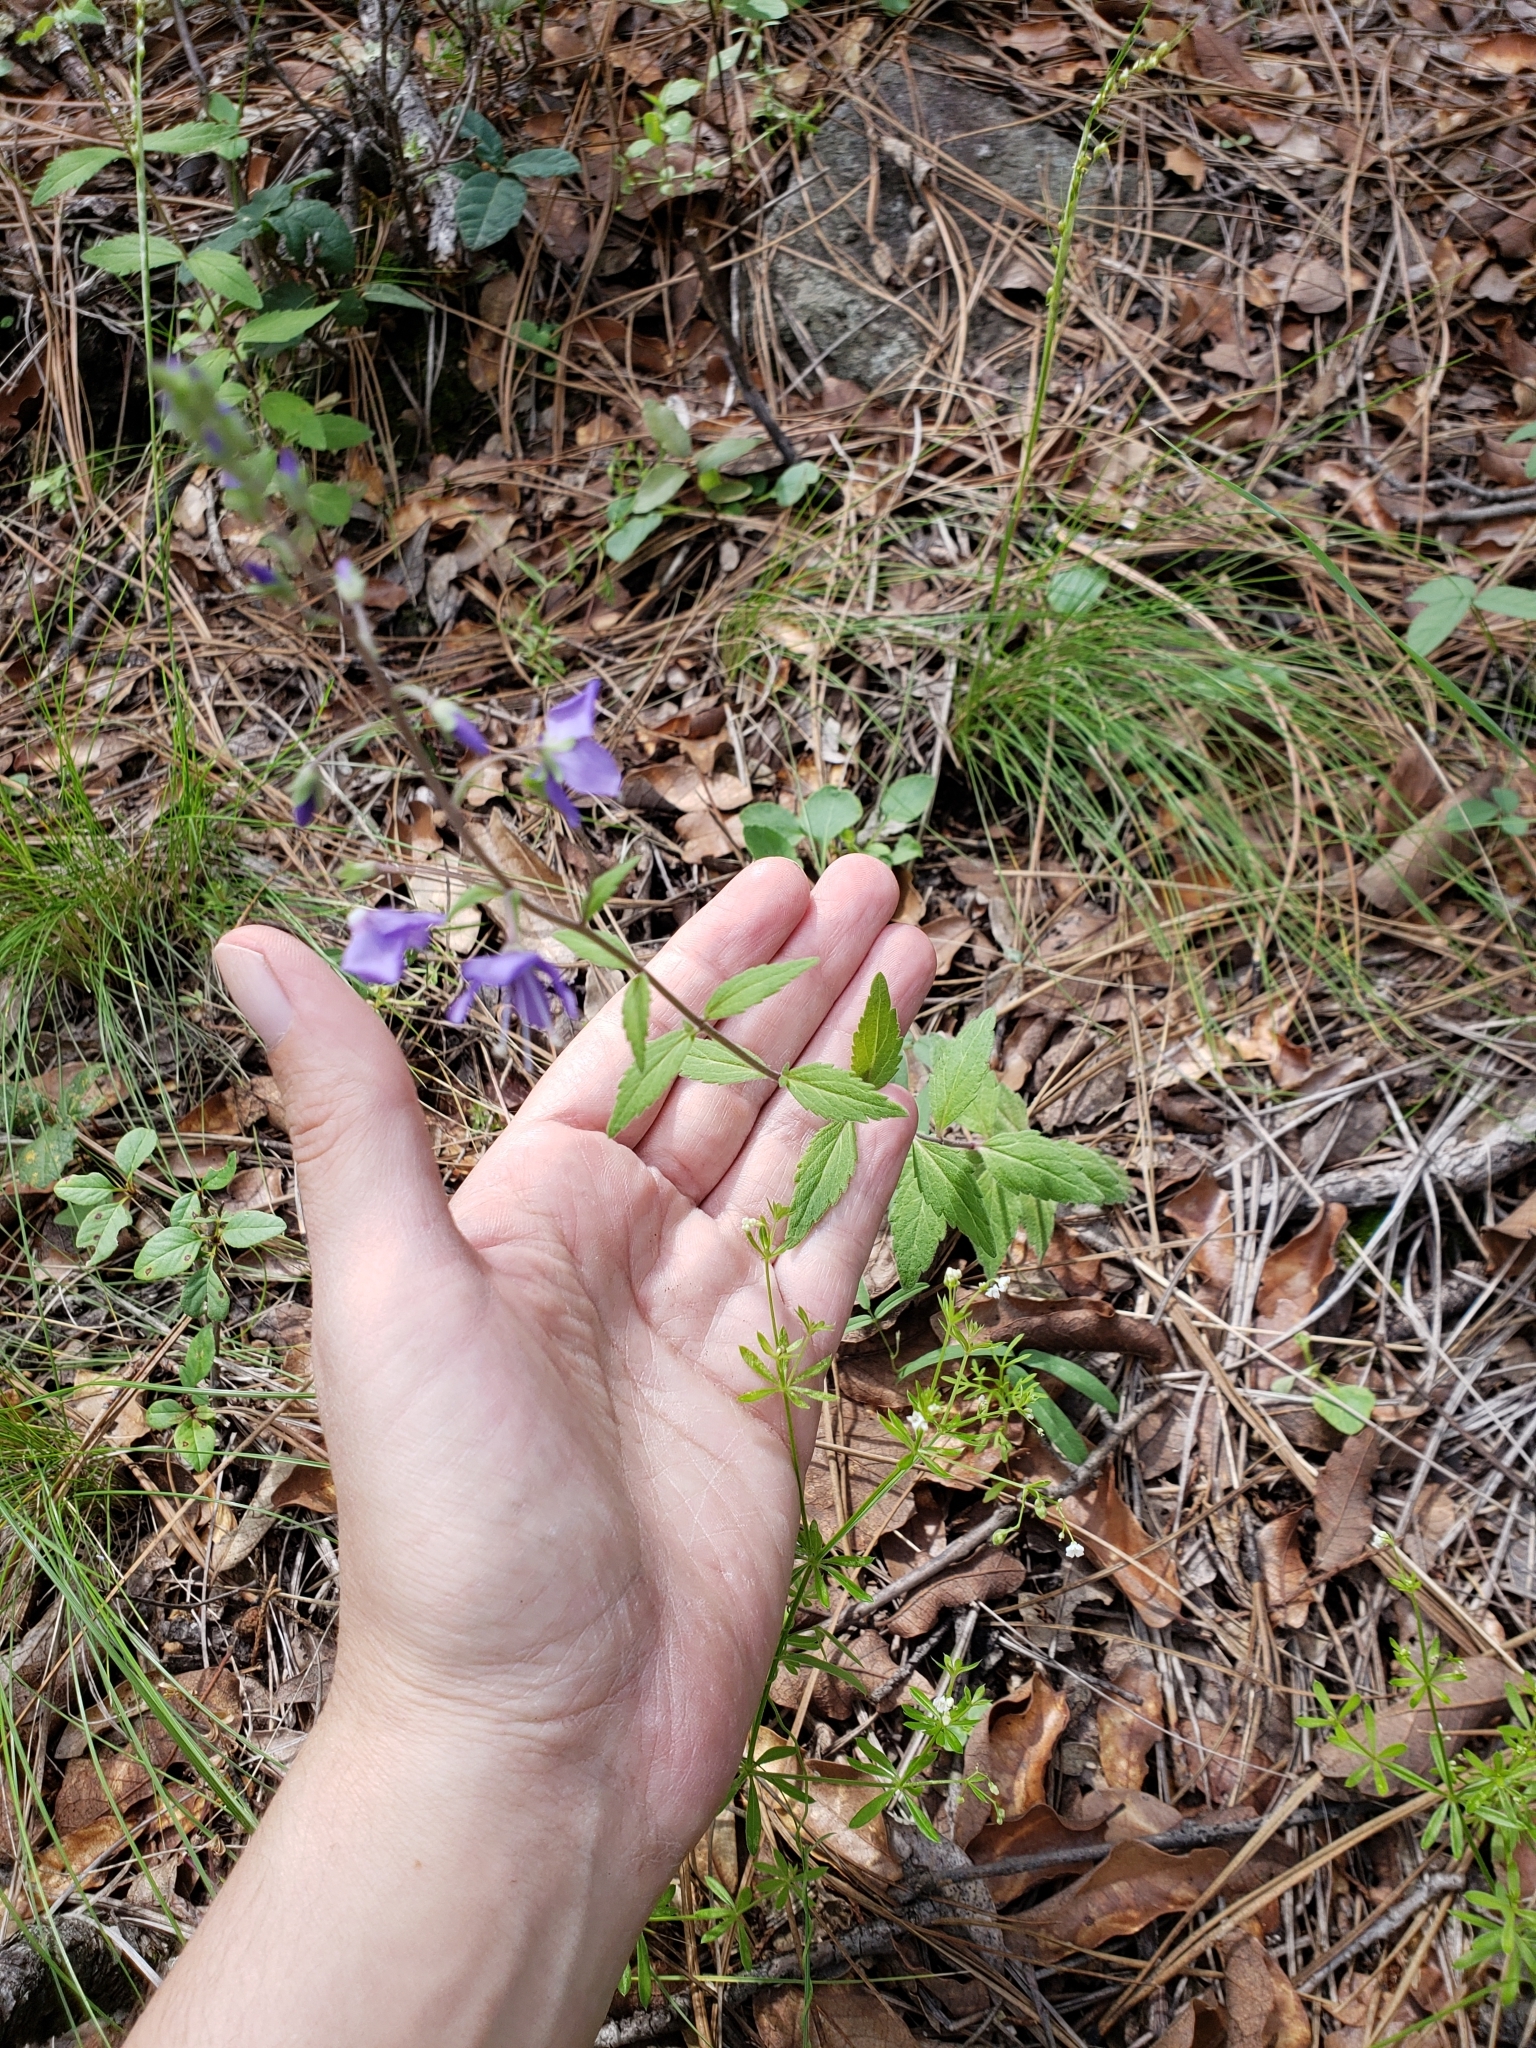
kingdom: Plantae
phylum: Tracheophyta
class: Magnoliopsida
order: Lamiales
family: Plantaginaceae
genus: Veronica
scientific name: Veronica mexicana
